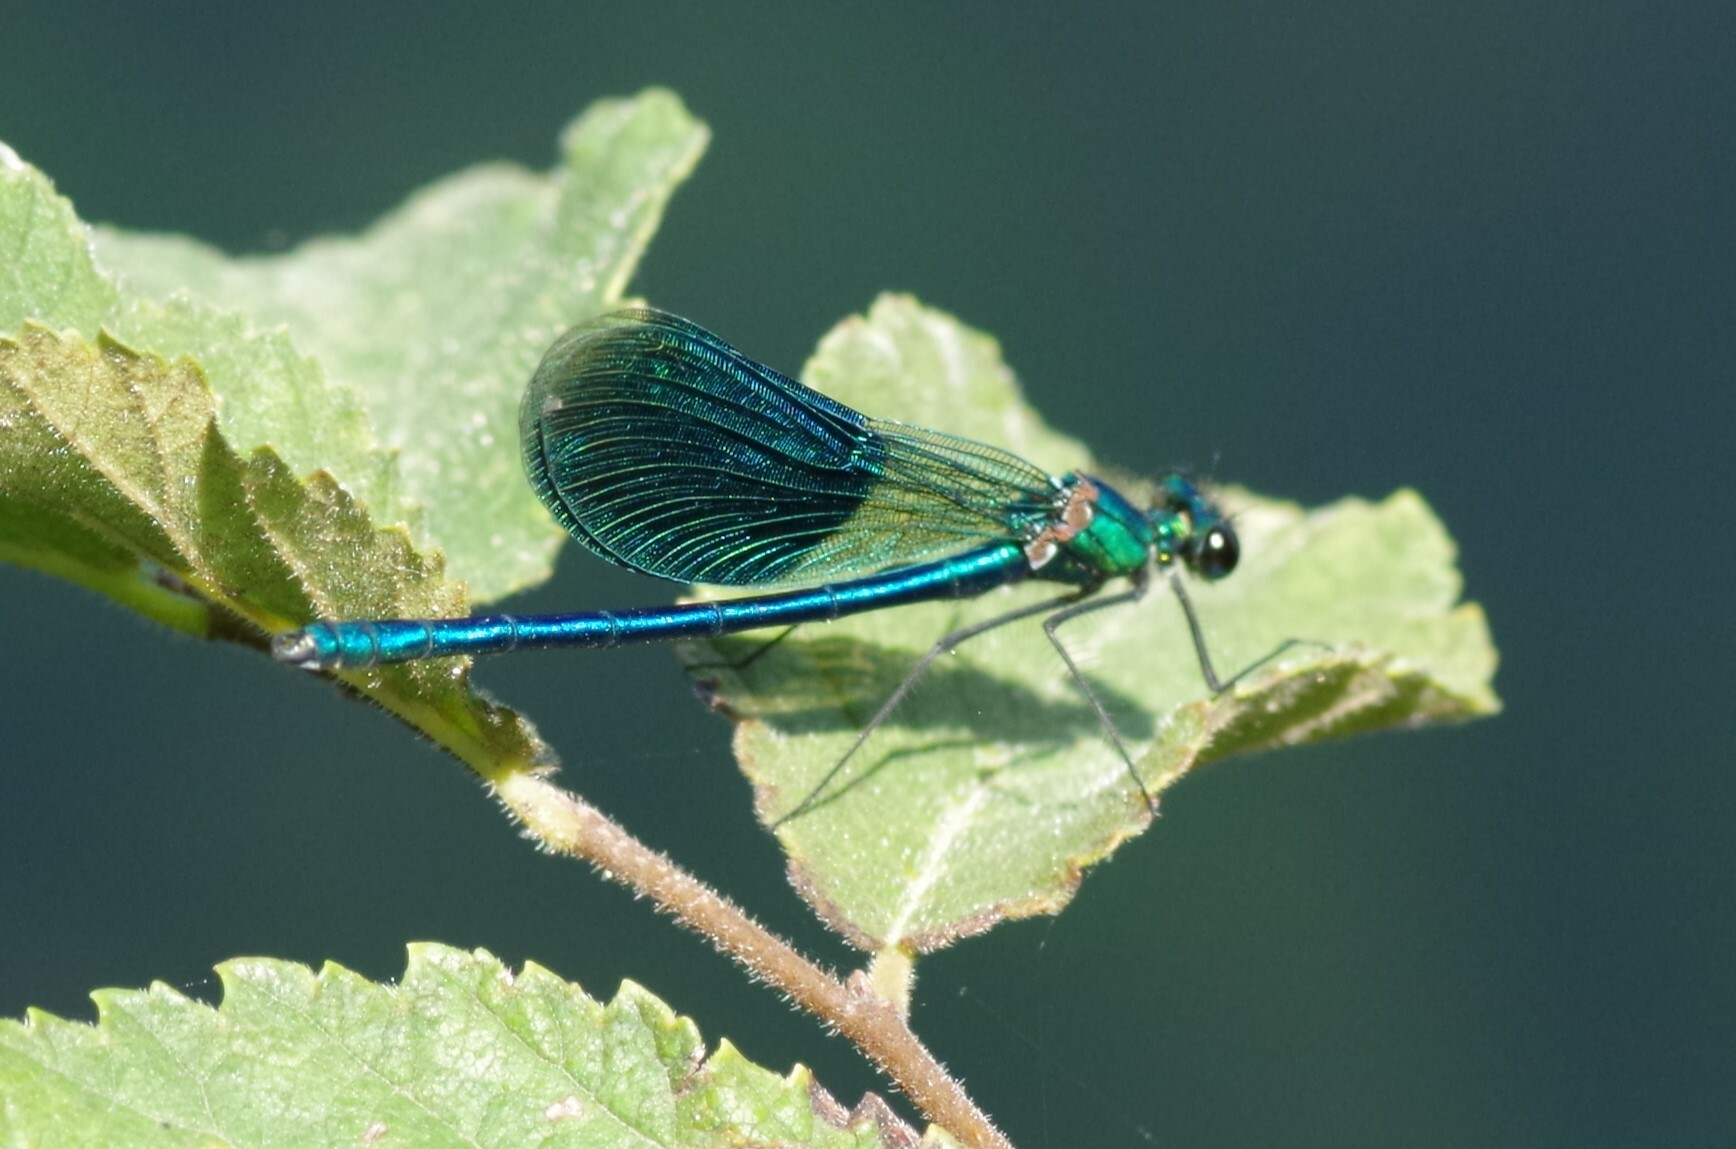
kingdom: Animalia
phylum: Arthropoda
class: Insecta
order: Odonata
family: Calopterygidae
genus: Calopteryx
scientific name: Calopteryx splendens
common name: Banded demoiselle
